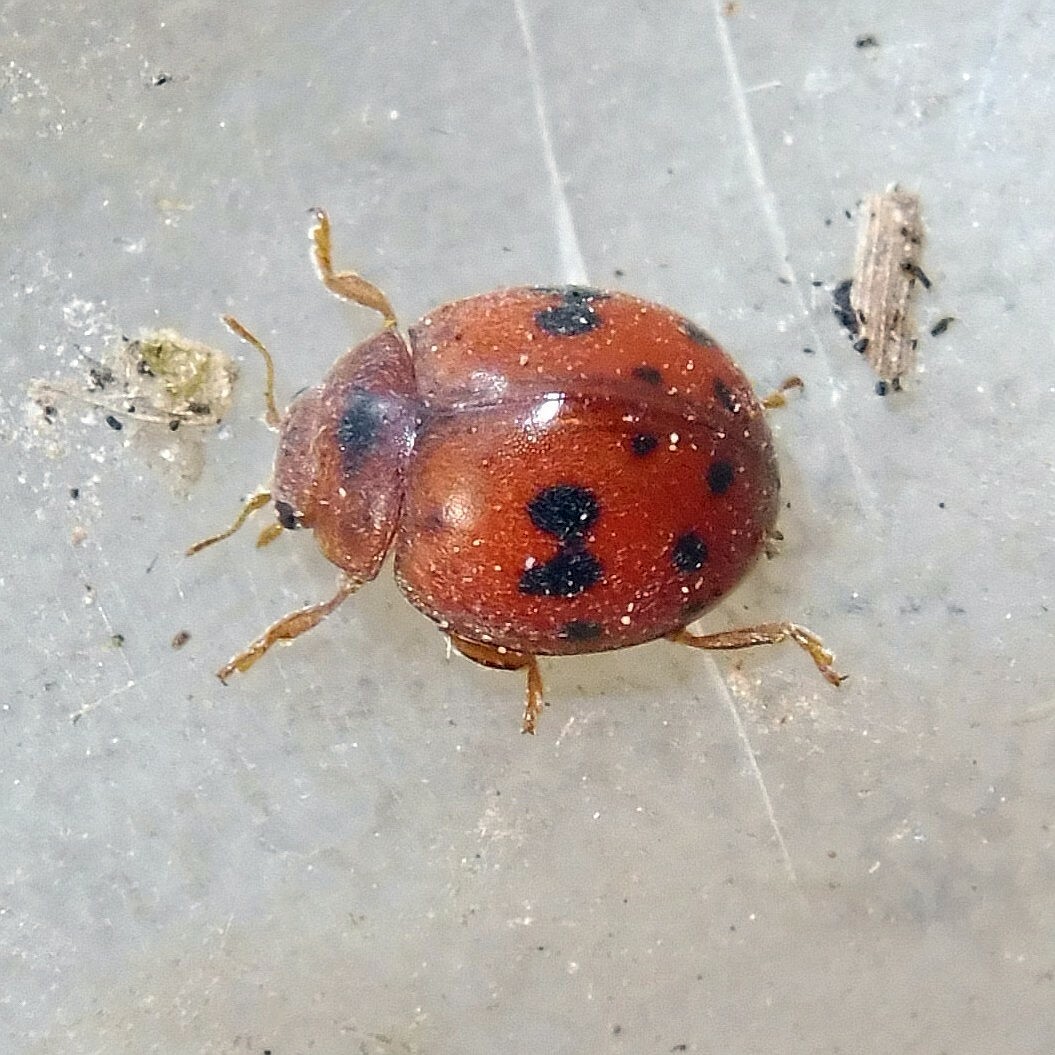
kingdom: Animalia
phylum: Arthropoda
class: Insecta
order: Coleoptera
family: Coccinellidae
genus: Subcoccinella
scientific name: Subcoccinella vigintiquatuorpunctata
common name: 24-spot ladybird
